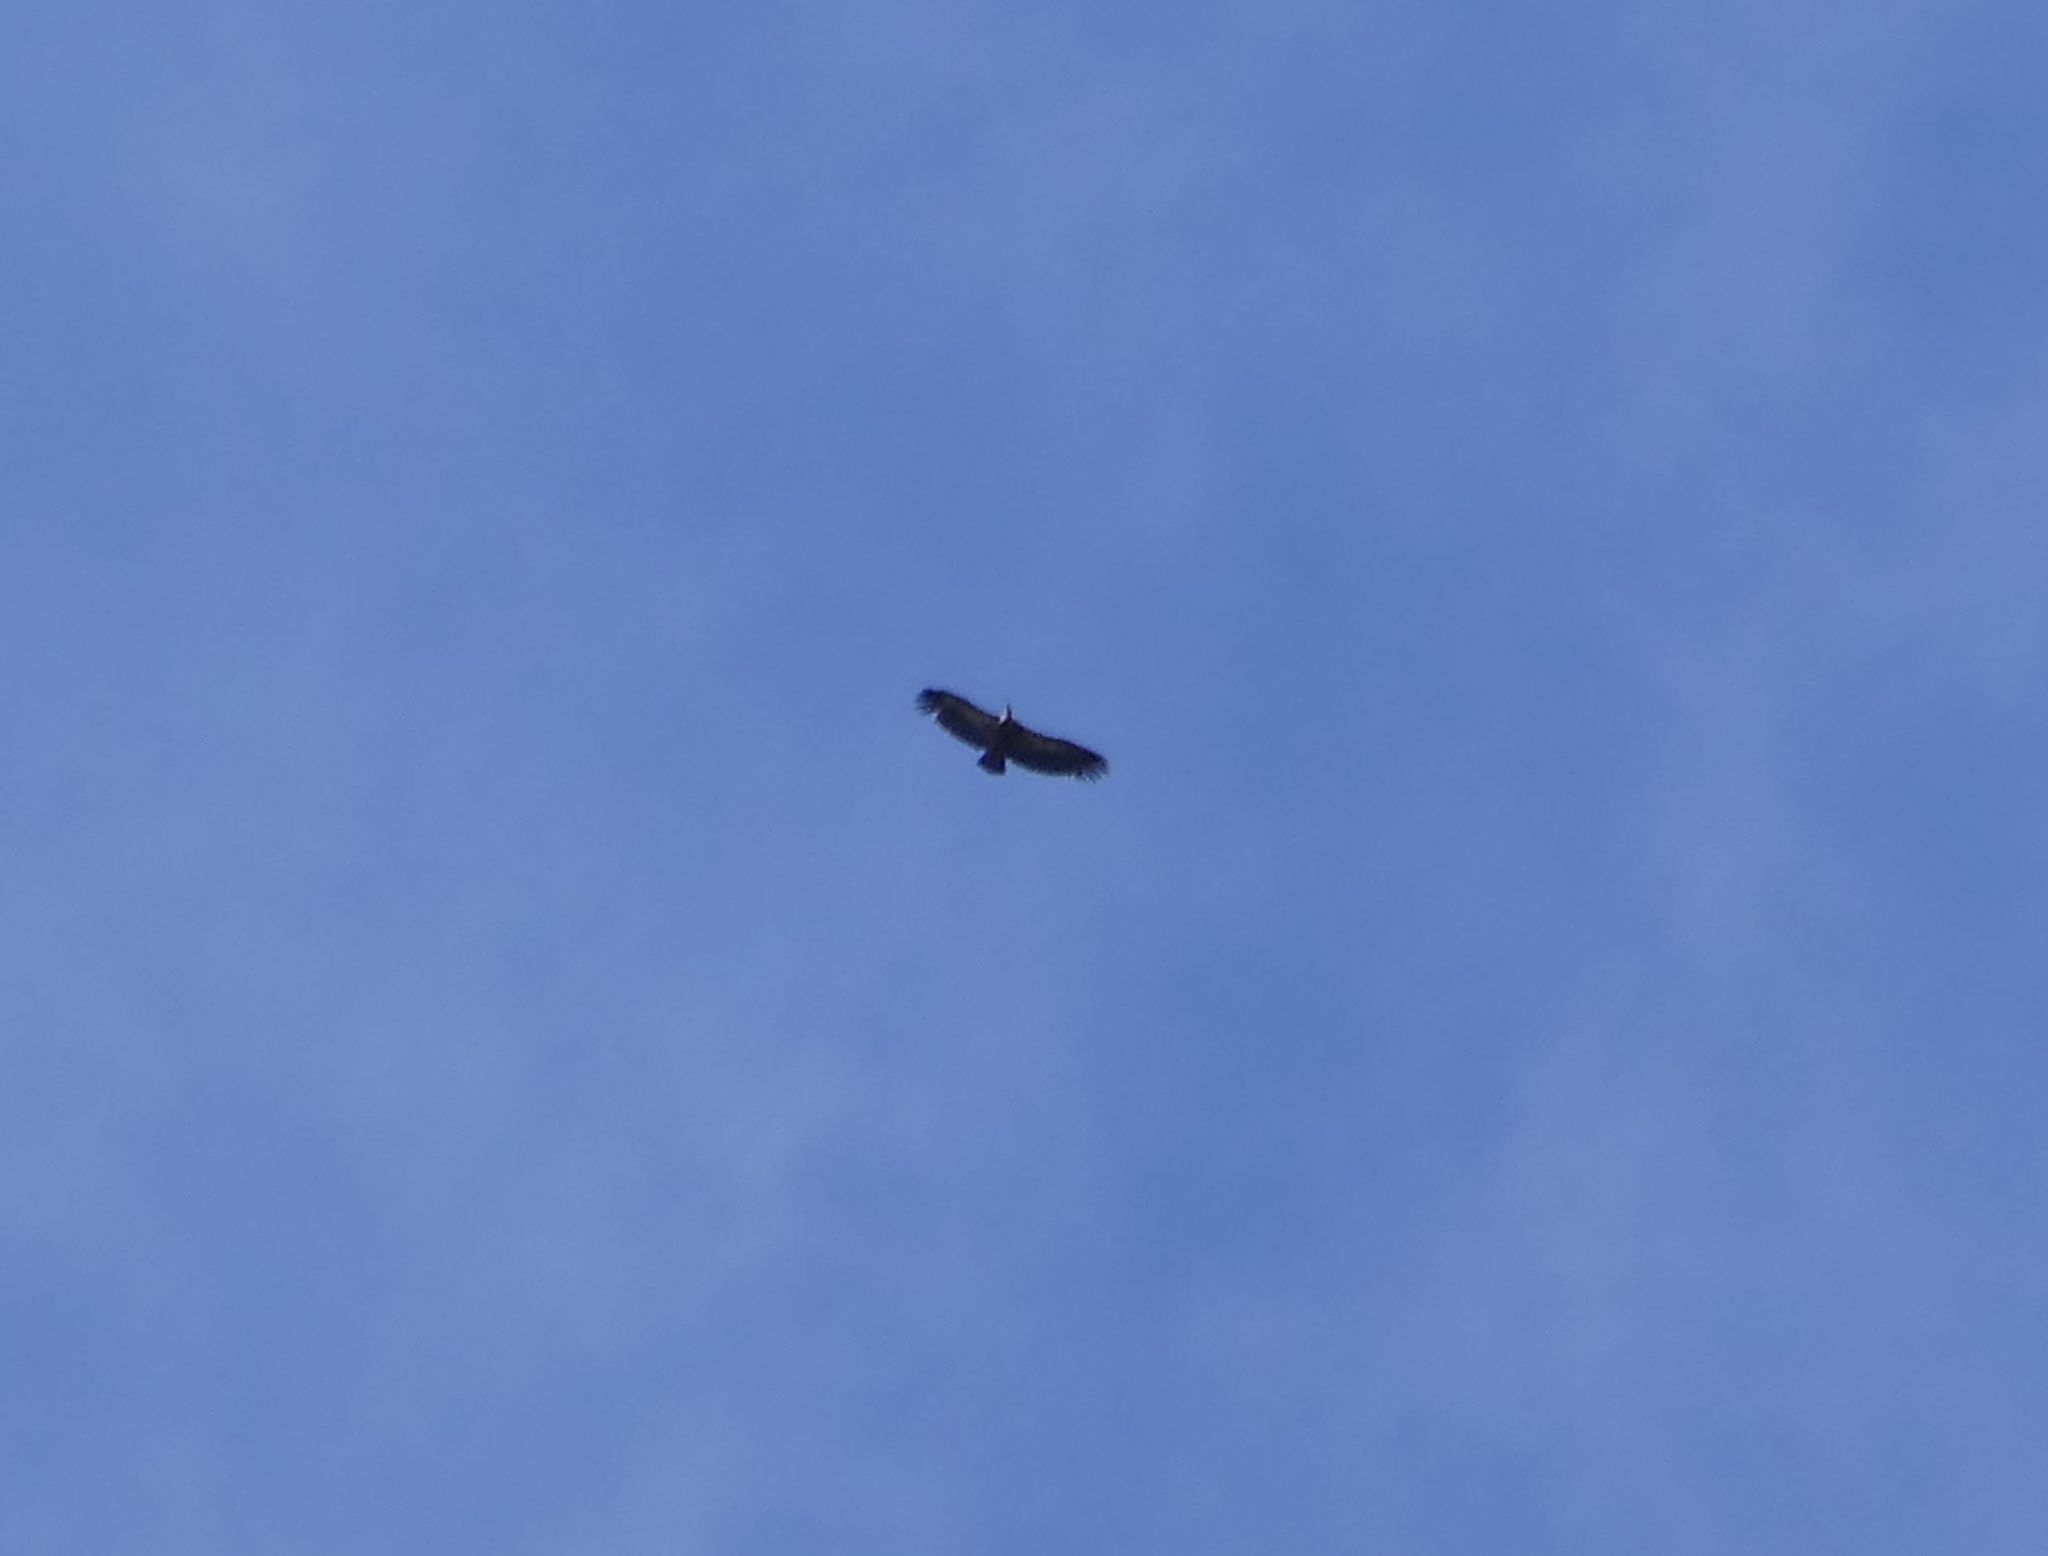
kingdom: Animalia
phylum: Chordata
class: Aves
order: Accipitriformes
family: Accipitridae
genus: Gyps
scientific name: Gyps fulvus
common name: Griffon vulture
